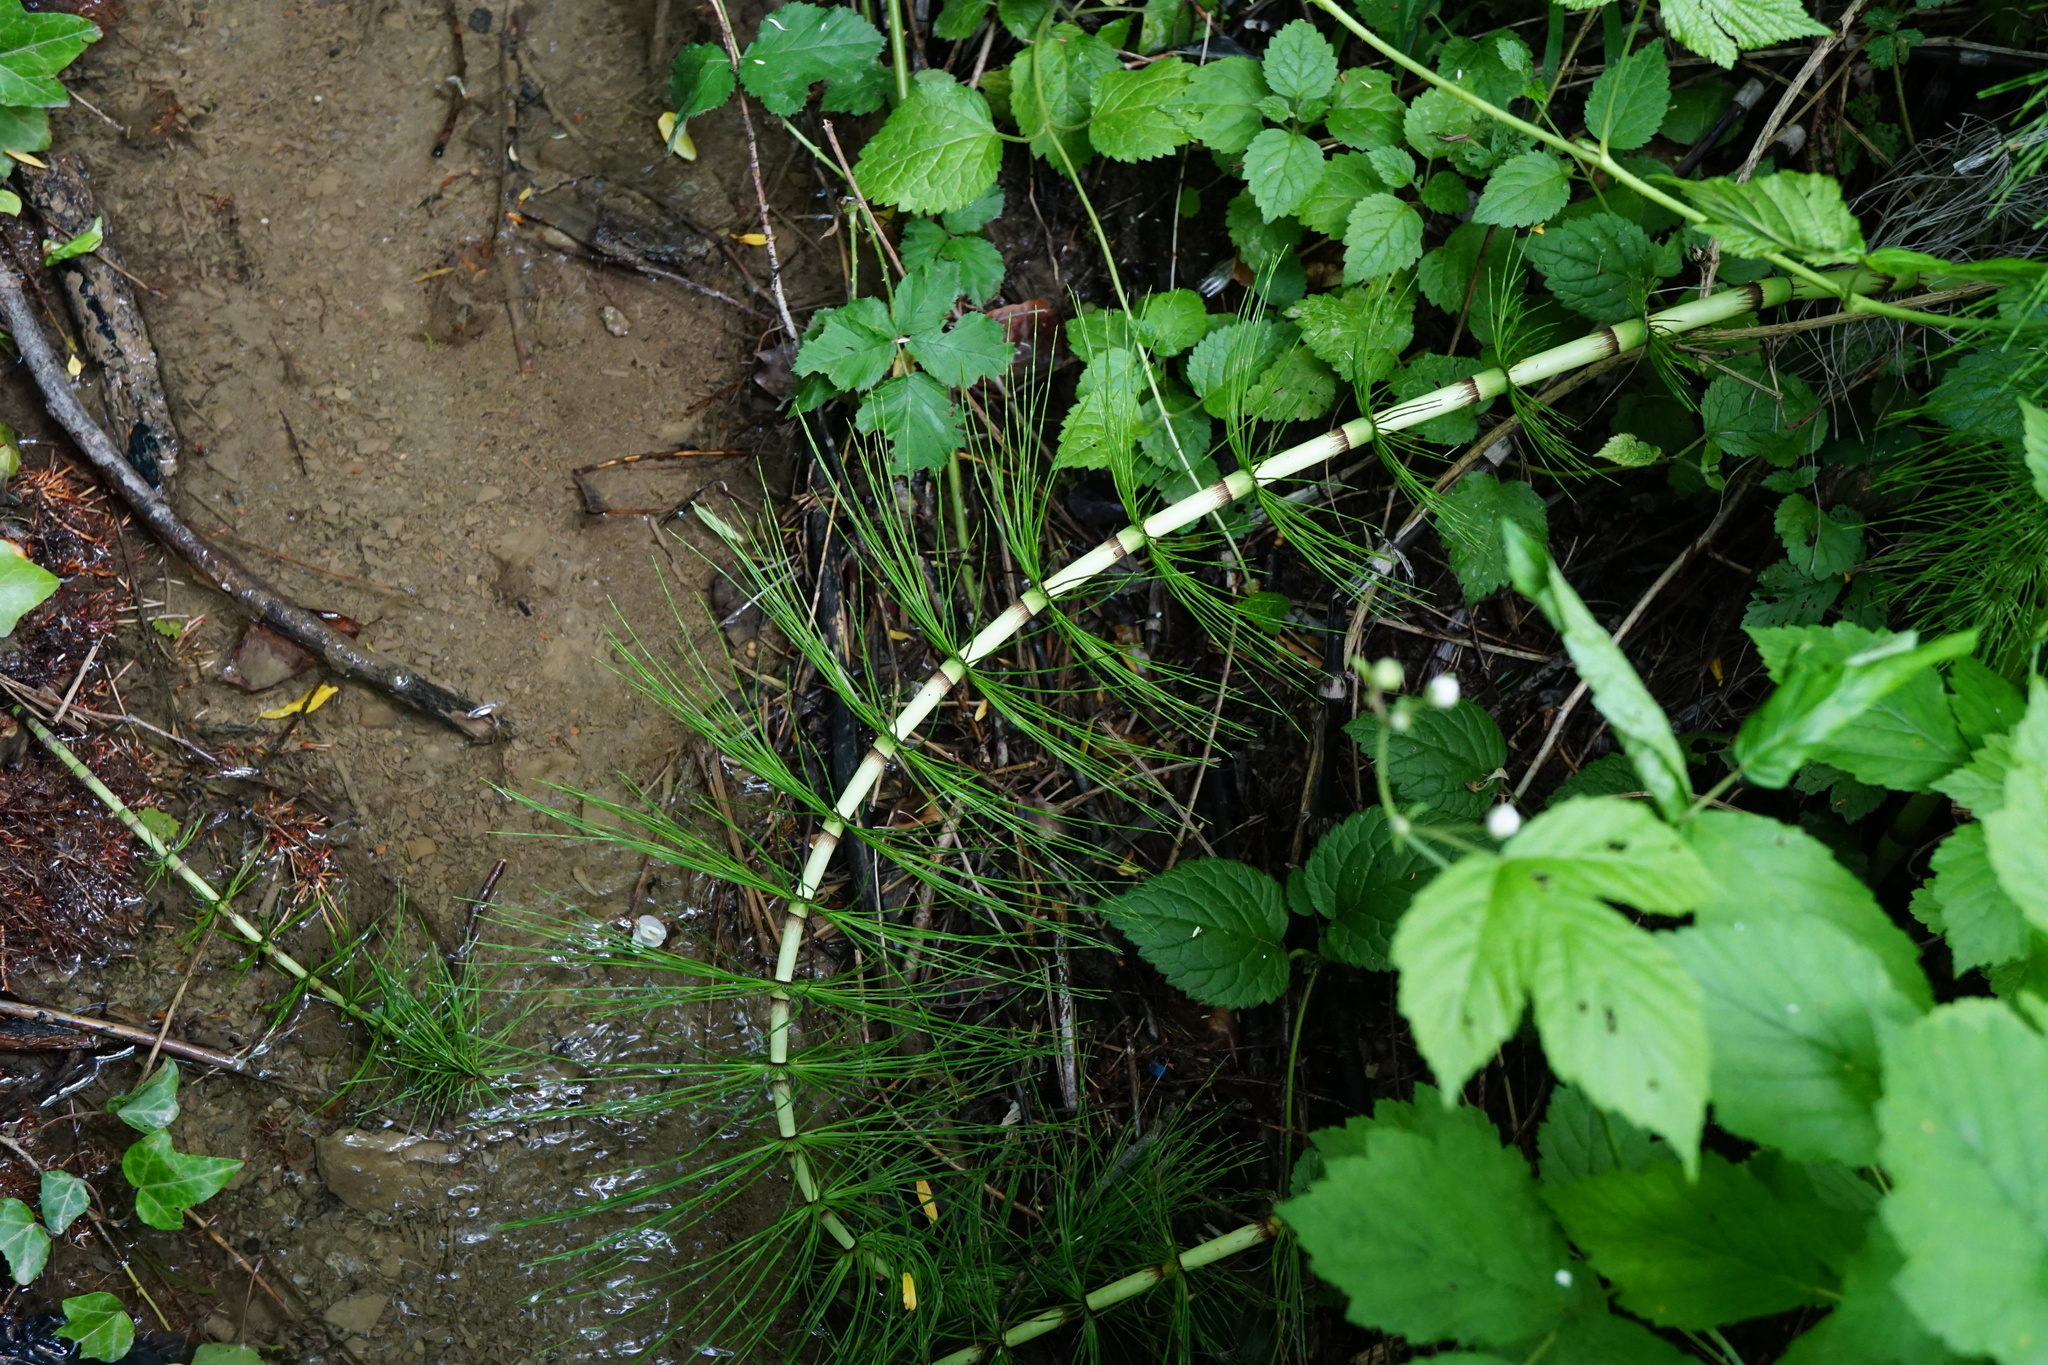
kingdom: Plantae
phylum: Tracheophyta
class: Polypodiopsida
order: Equisetales
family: Equisetaceae
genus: Equisetum
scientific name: Equisetum telmateia
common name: Great horsetail
